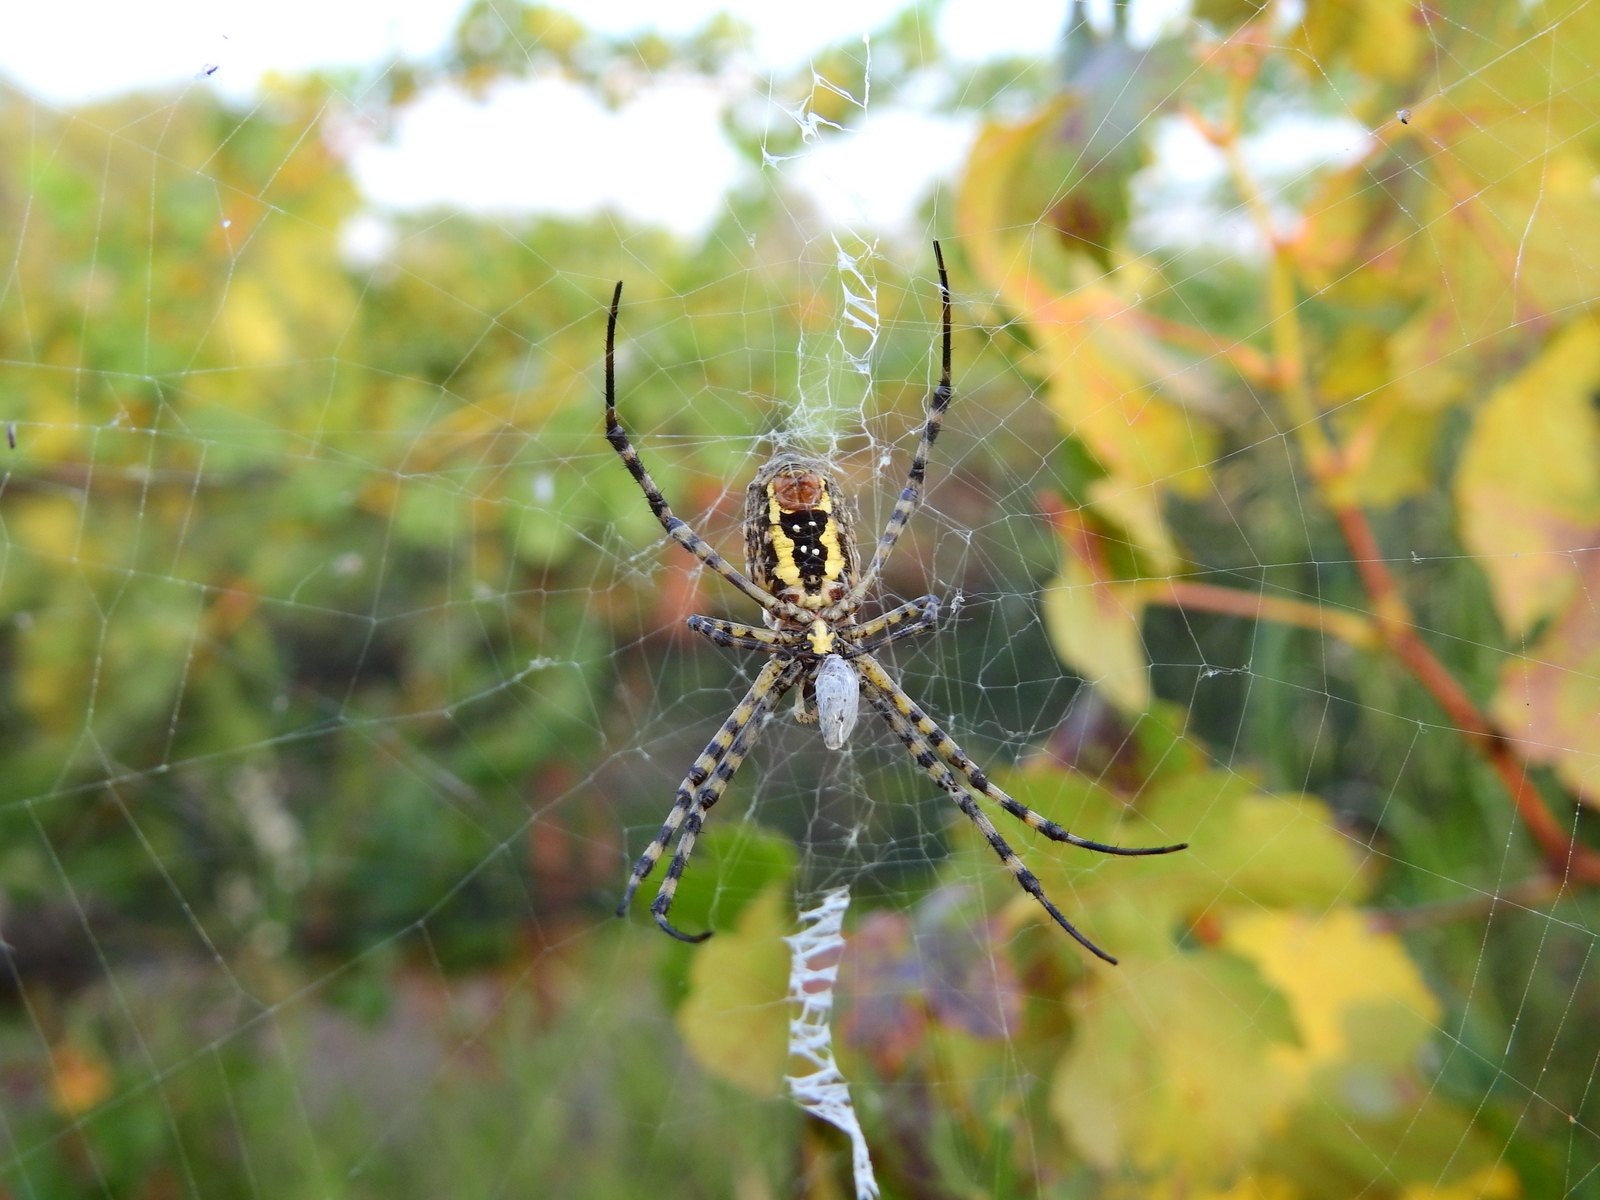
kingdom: Animalia
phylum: Arthropoda
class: Arachnida
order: Araneae
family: Araneidae
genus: Argiope
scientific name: Argiope trifasciata
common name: Banded garden spider
